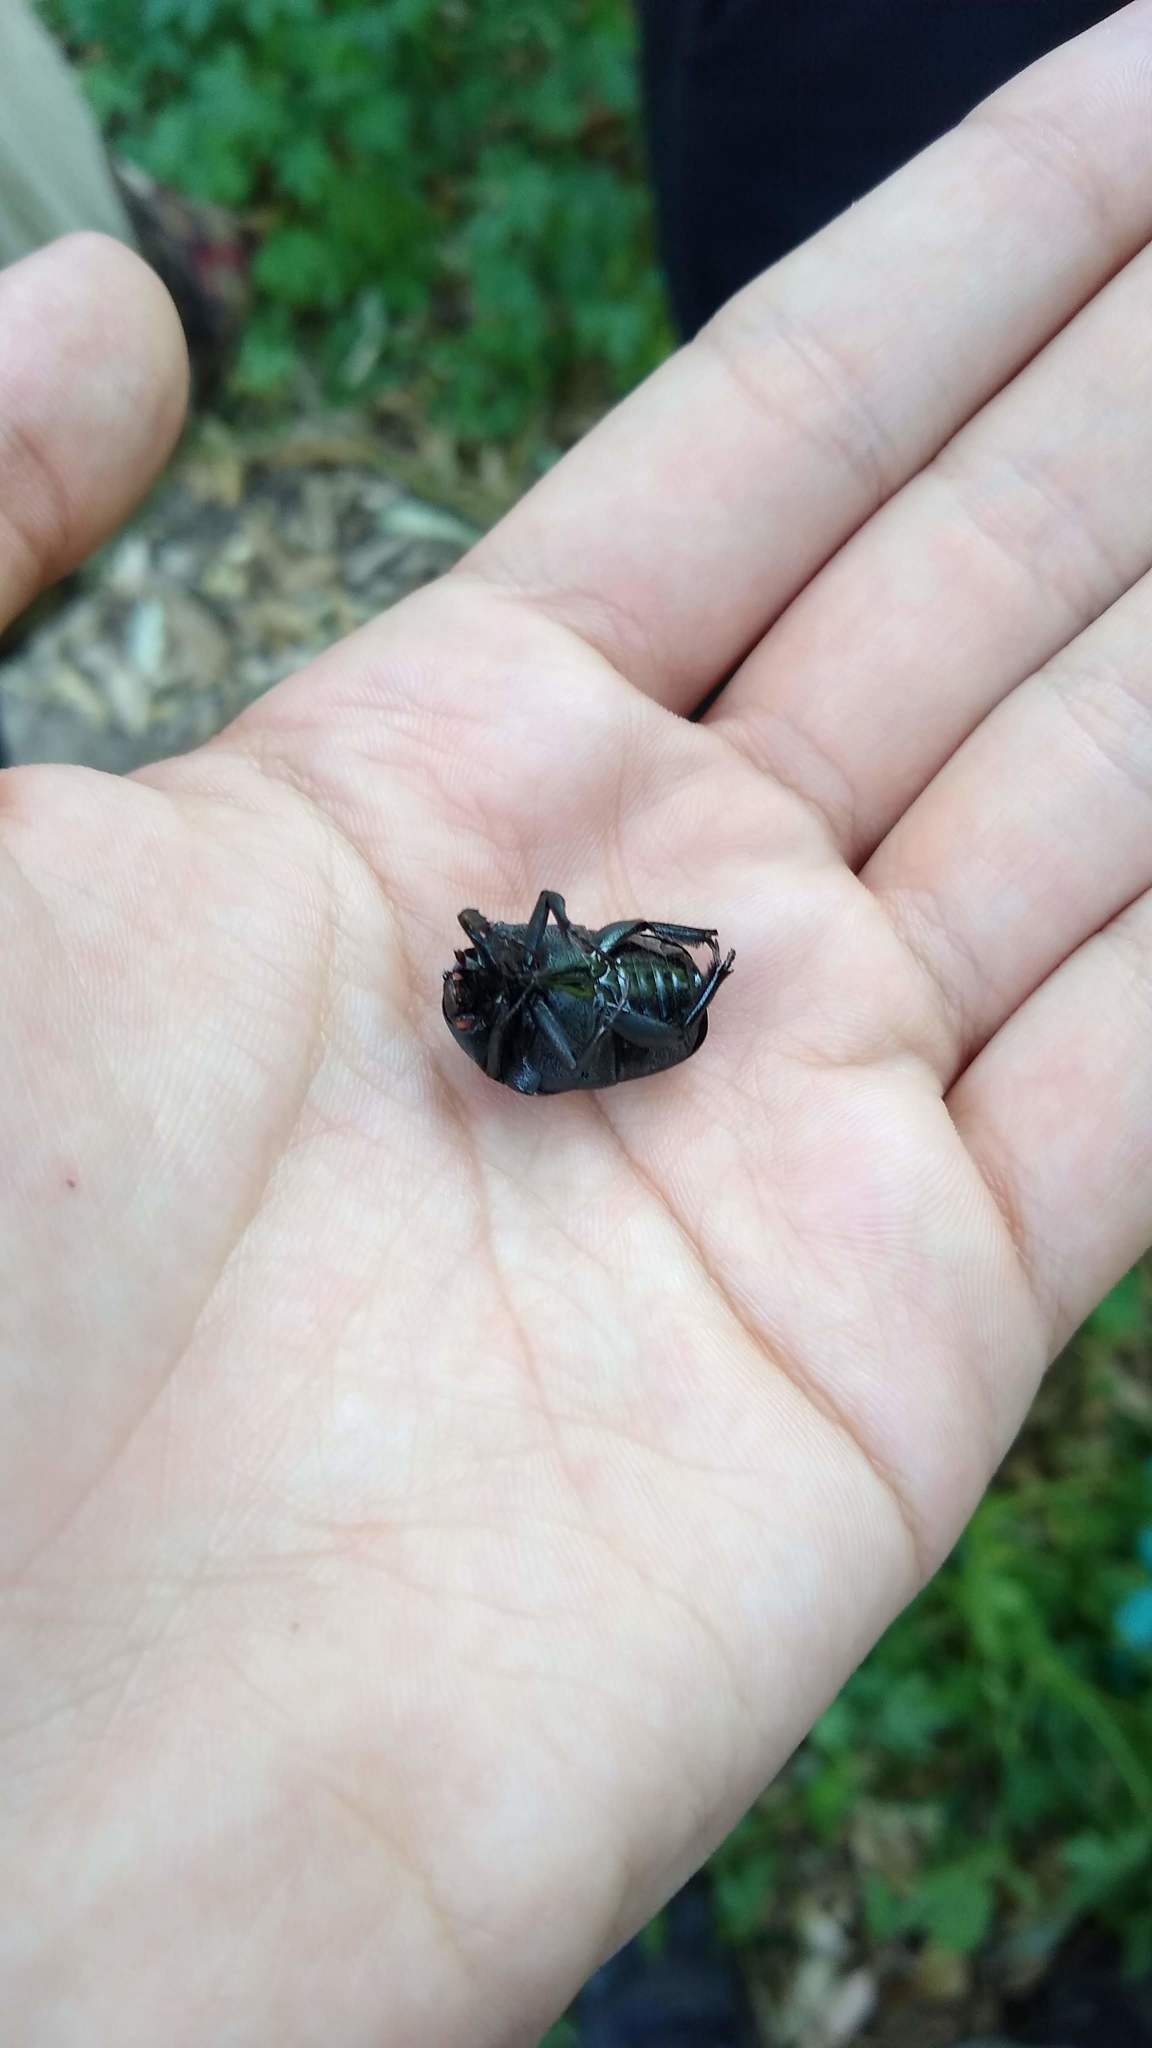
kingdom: Animalia
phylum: Arthropoda
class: Insecta
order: Coleoptera
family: Scarabaeidae
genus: Gymnetis
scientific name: Gymnetis pudibunda
